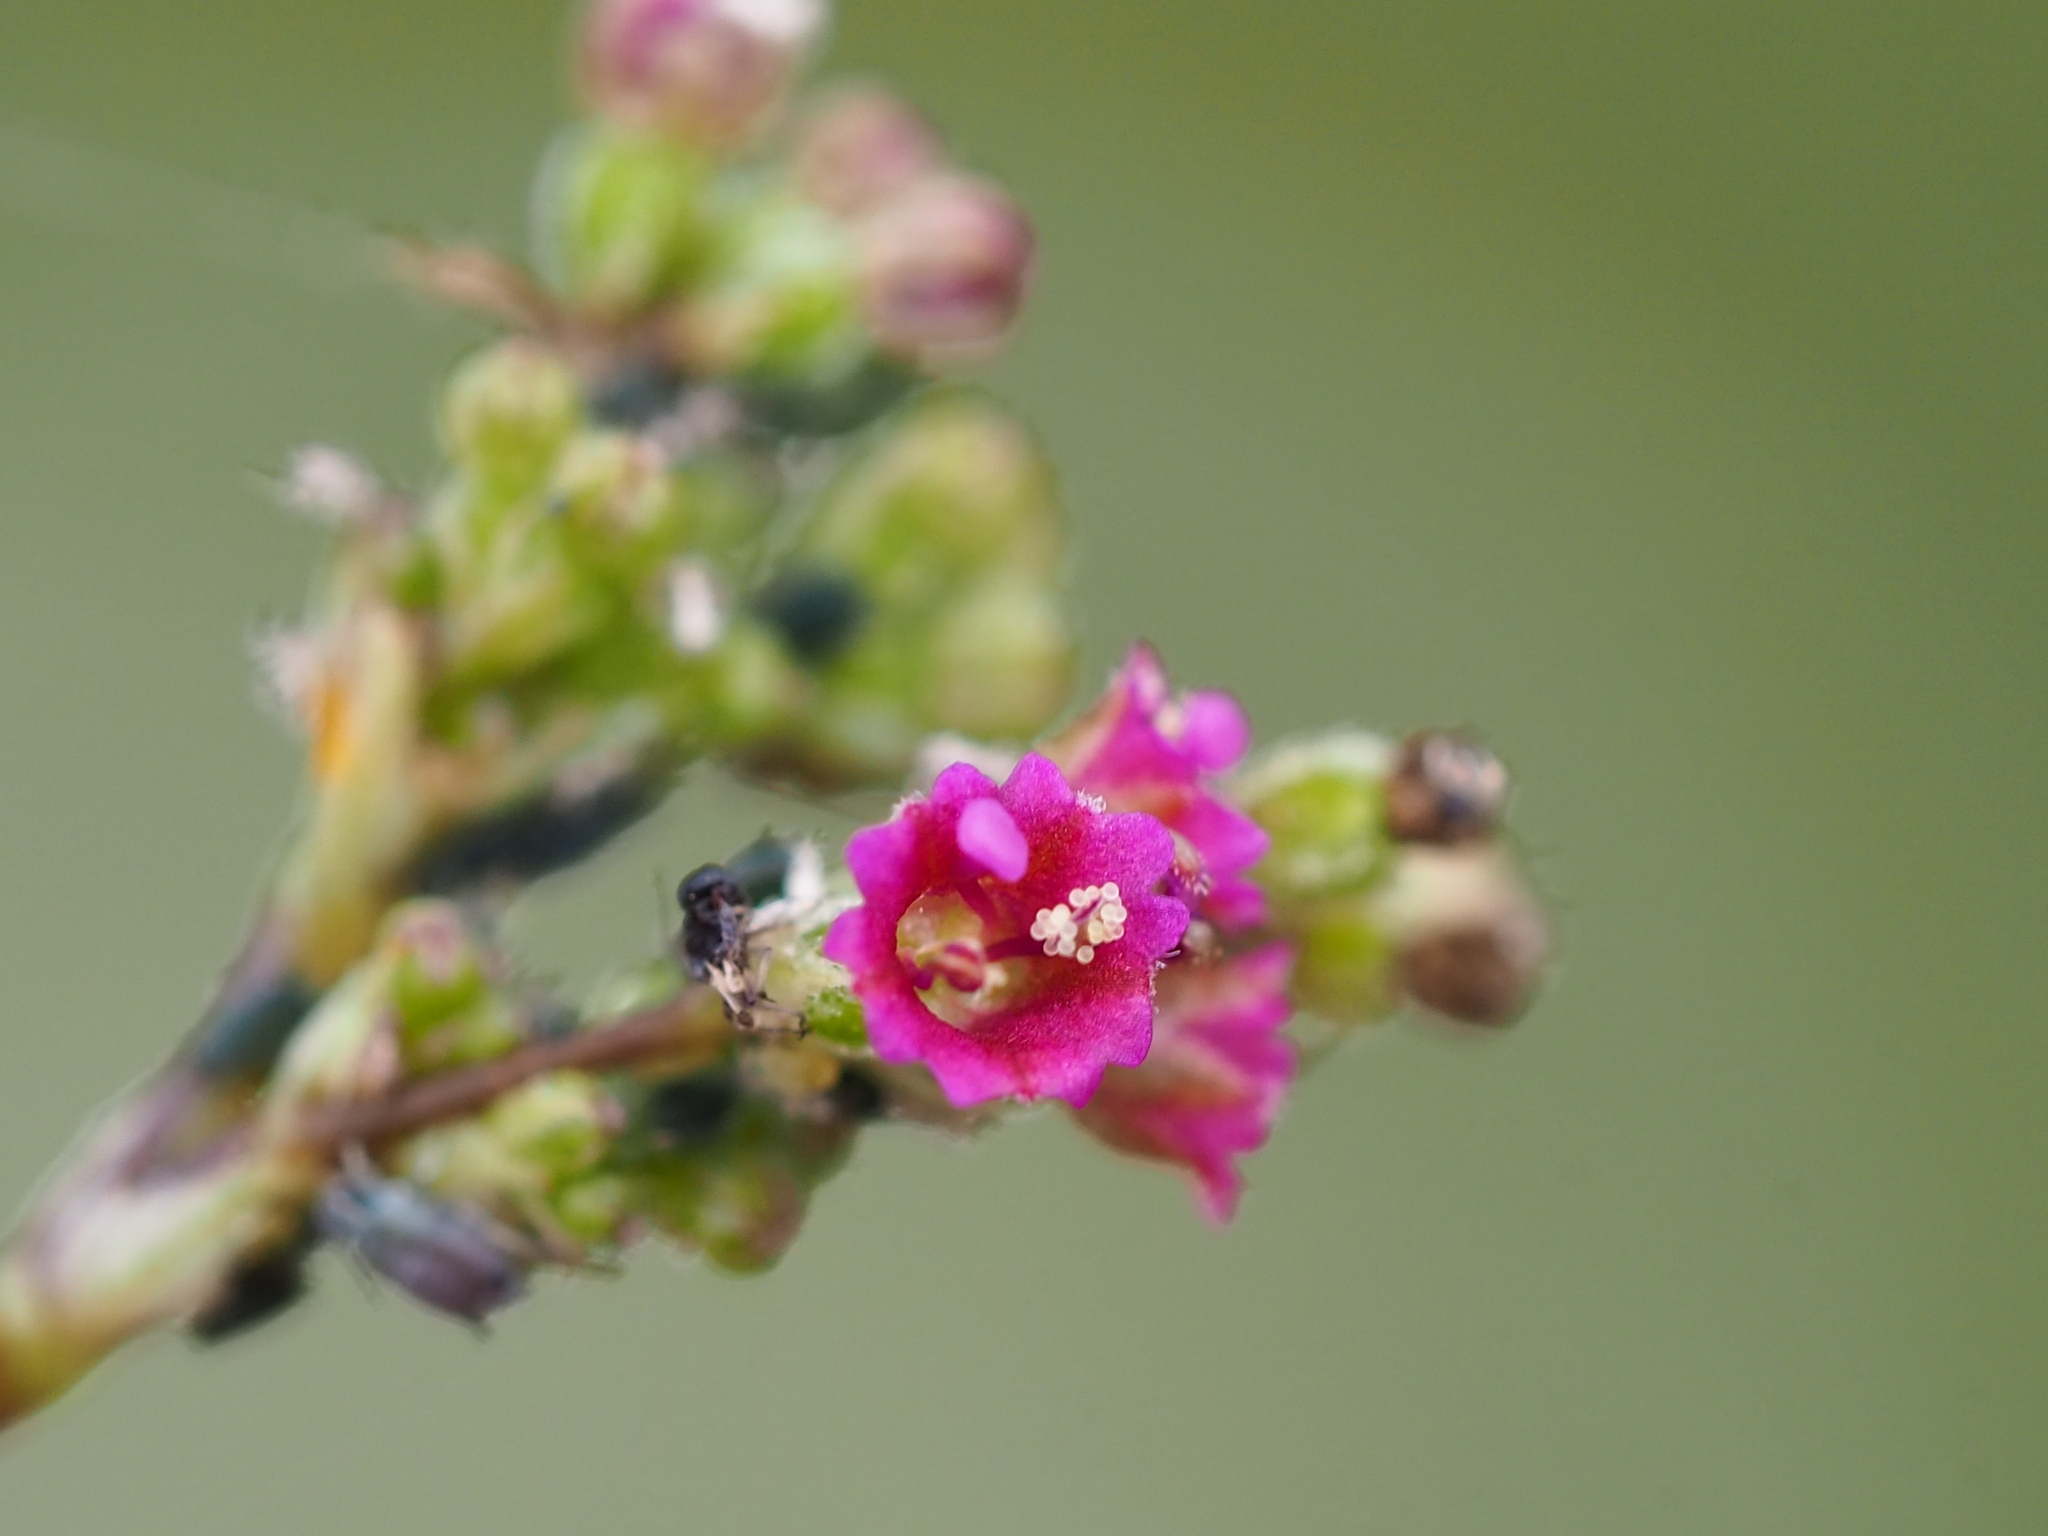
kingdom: Plantae
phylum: Tracheophyta
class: Magnoliopsida
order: Caryophyllales
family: Nyctaginaceae
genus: Boerhavia
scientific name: Boerhavia coccinea
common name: Scarlet spiderling
